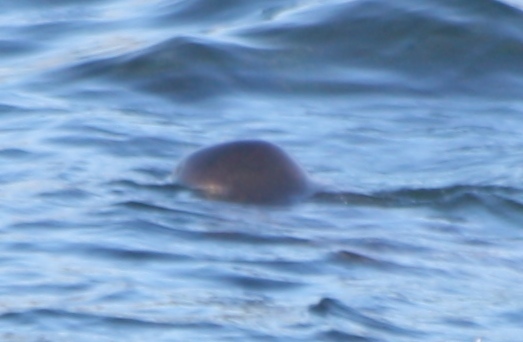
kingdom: Animalia
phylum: Chordata
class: Mammalia
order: Carnivora
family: Phocidae
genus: Phoca
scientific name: Phoca vitulina
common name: Harbor seal
